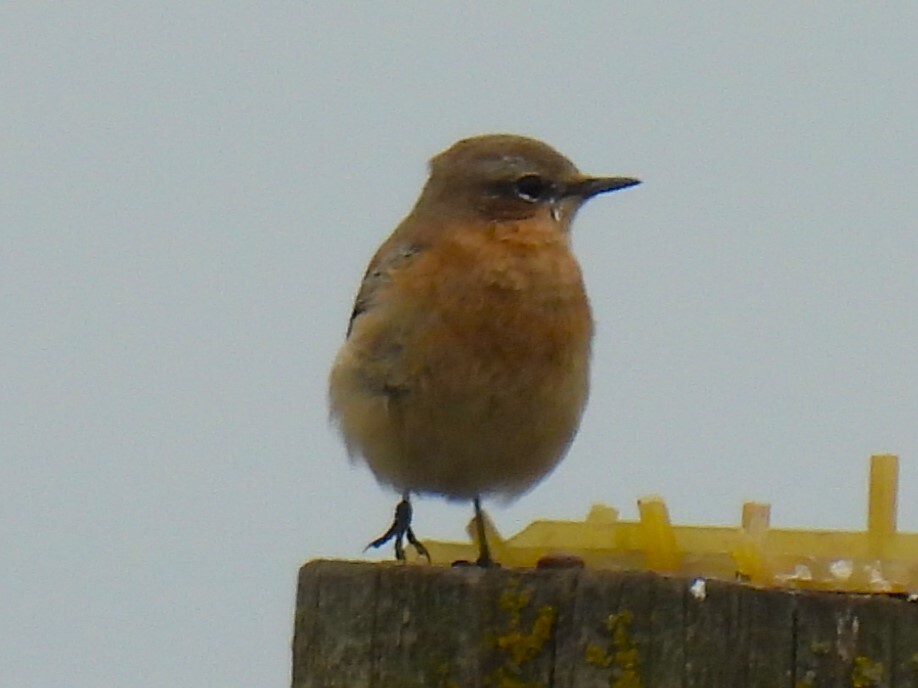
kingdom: Animalia
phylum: Chordata
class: Aves
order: Passeriformes
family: Muscicapidae
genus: Oenanthe
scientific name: Oenanthe oenanthe
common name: Northern wheatear
